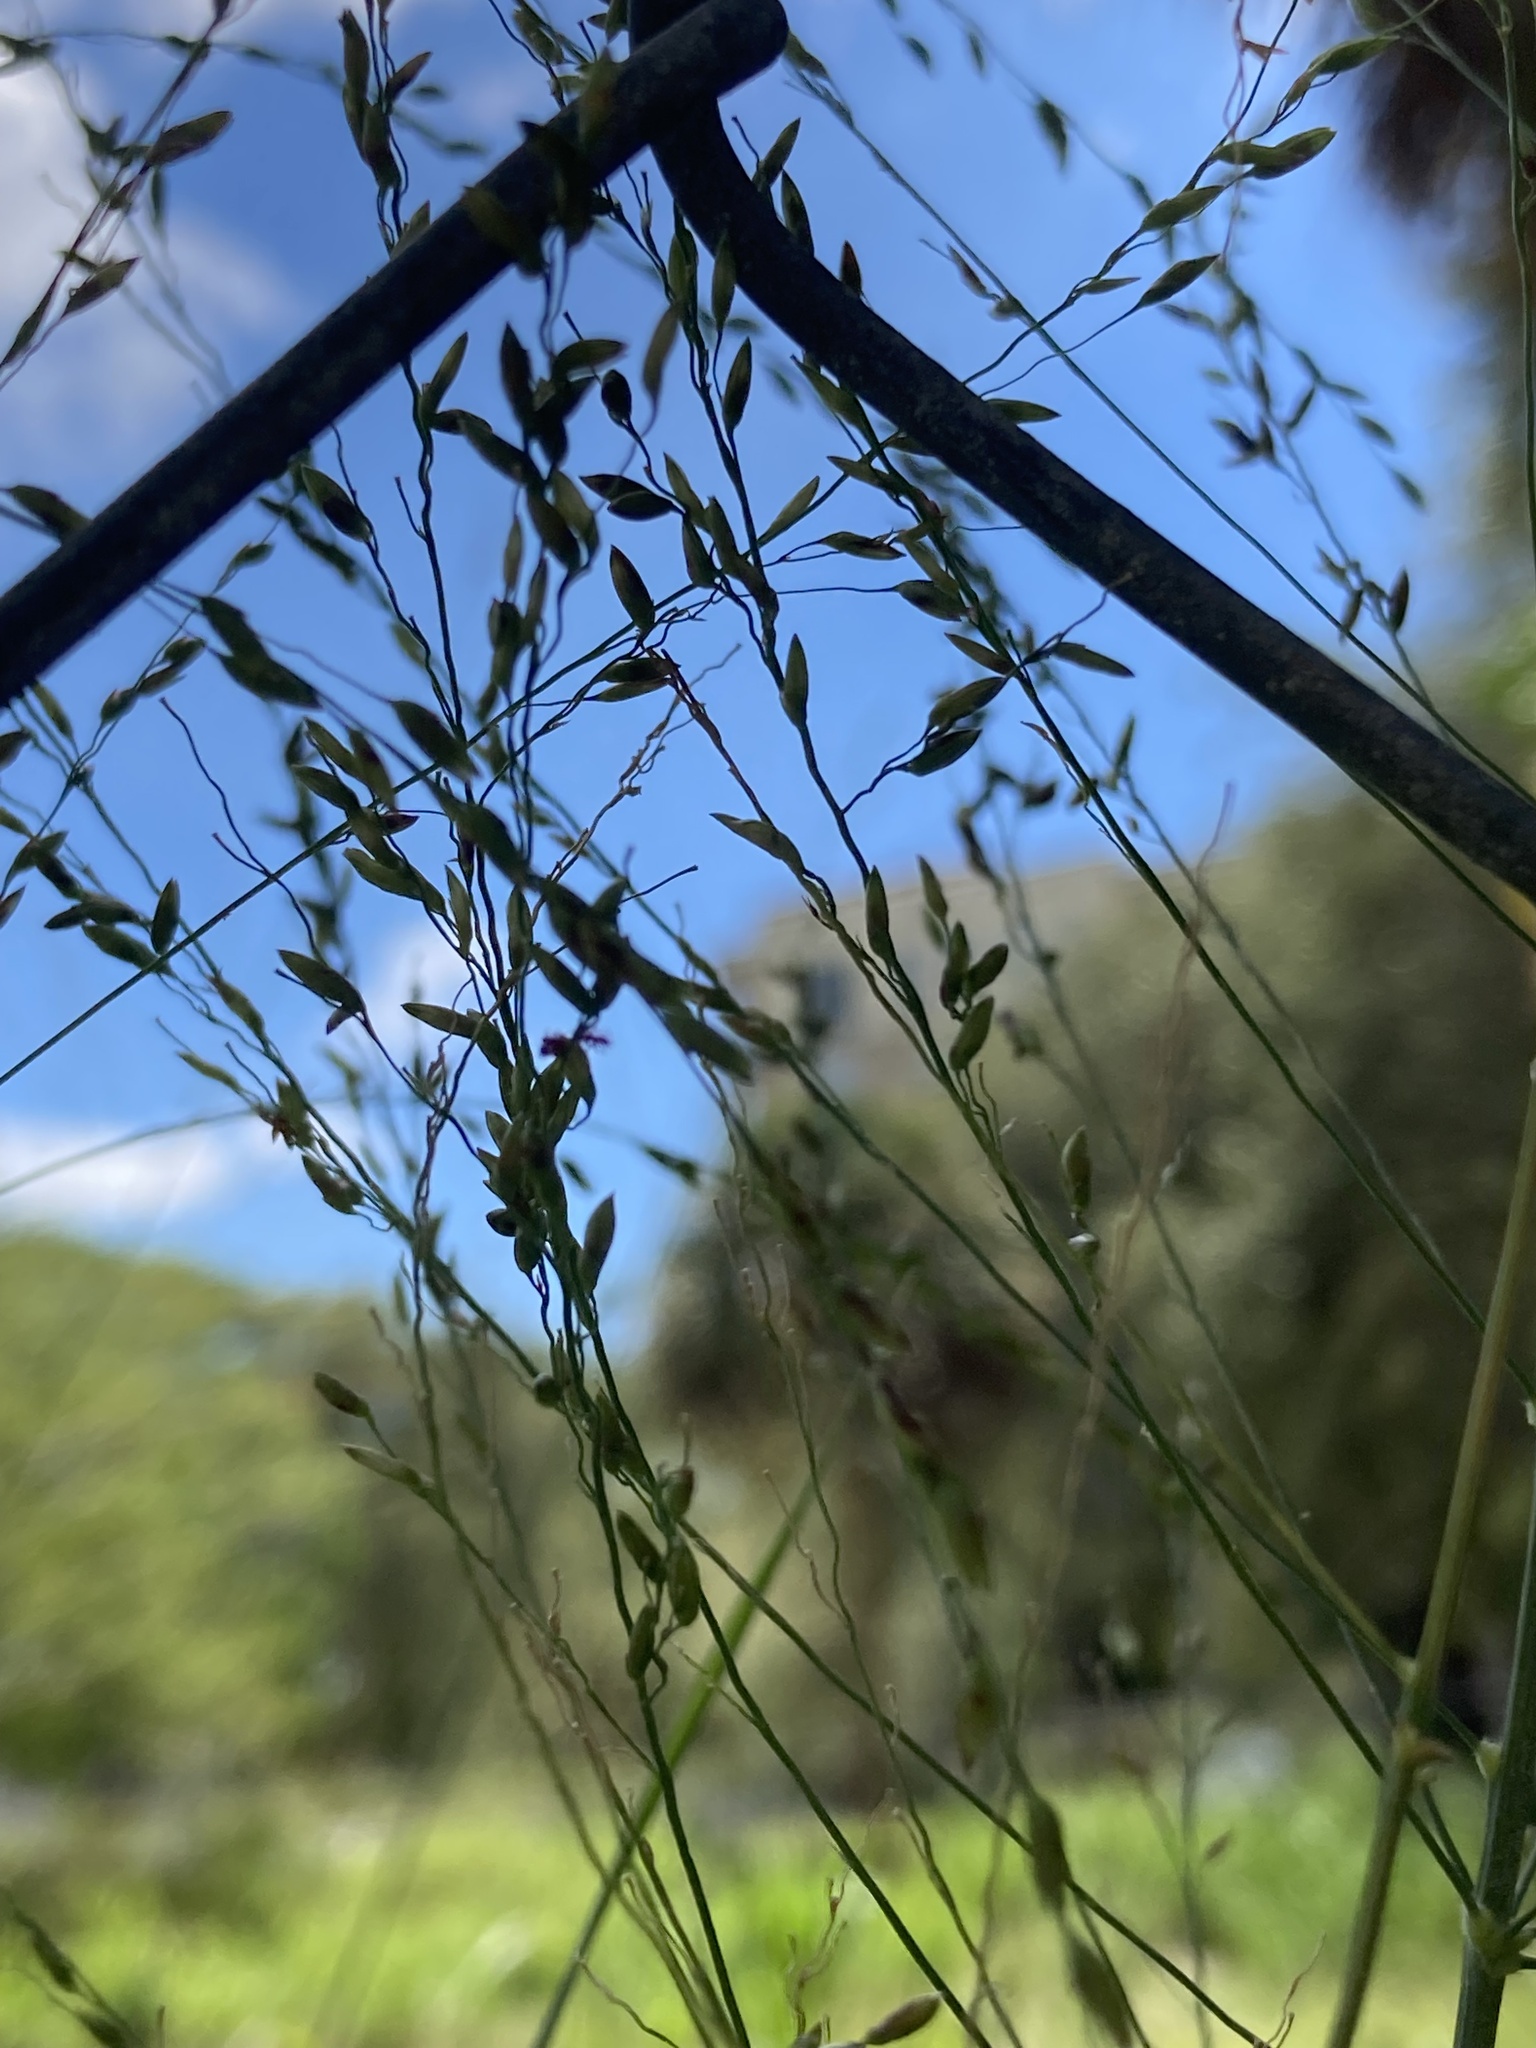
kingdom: Plantae
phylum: Tracheophyta
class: Liliopsida
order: Poales
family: Poaceae
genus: Megathyrsus
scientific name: Megathyrsus maximus
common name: Guineagrass
